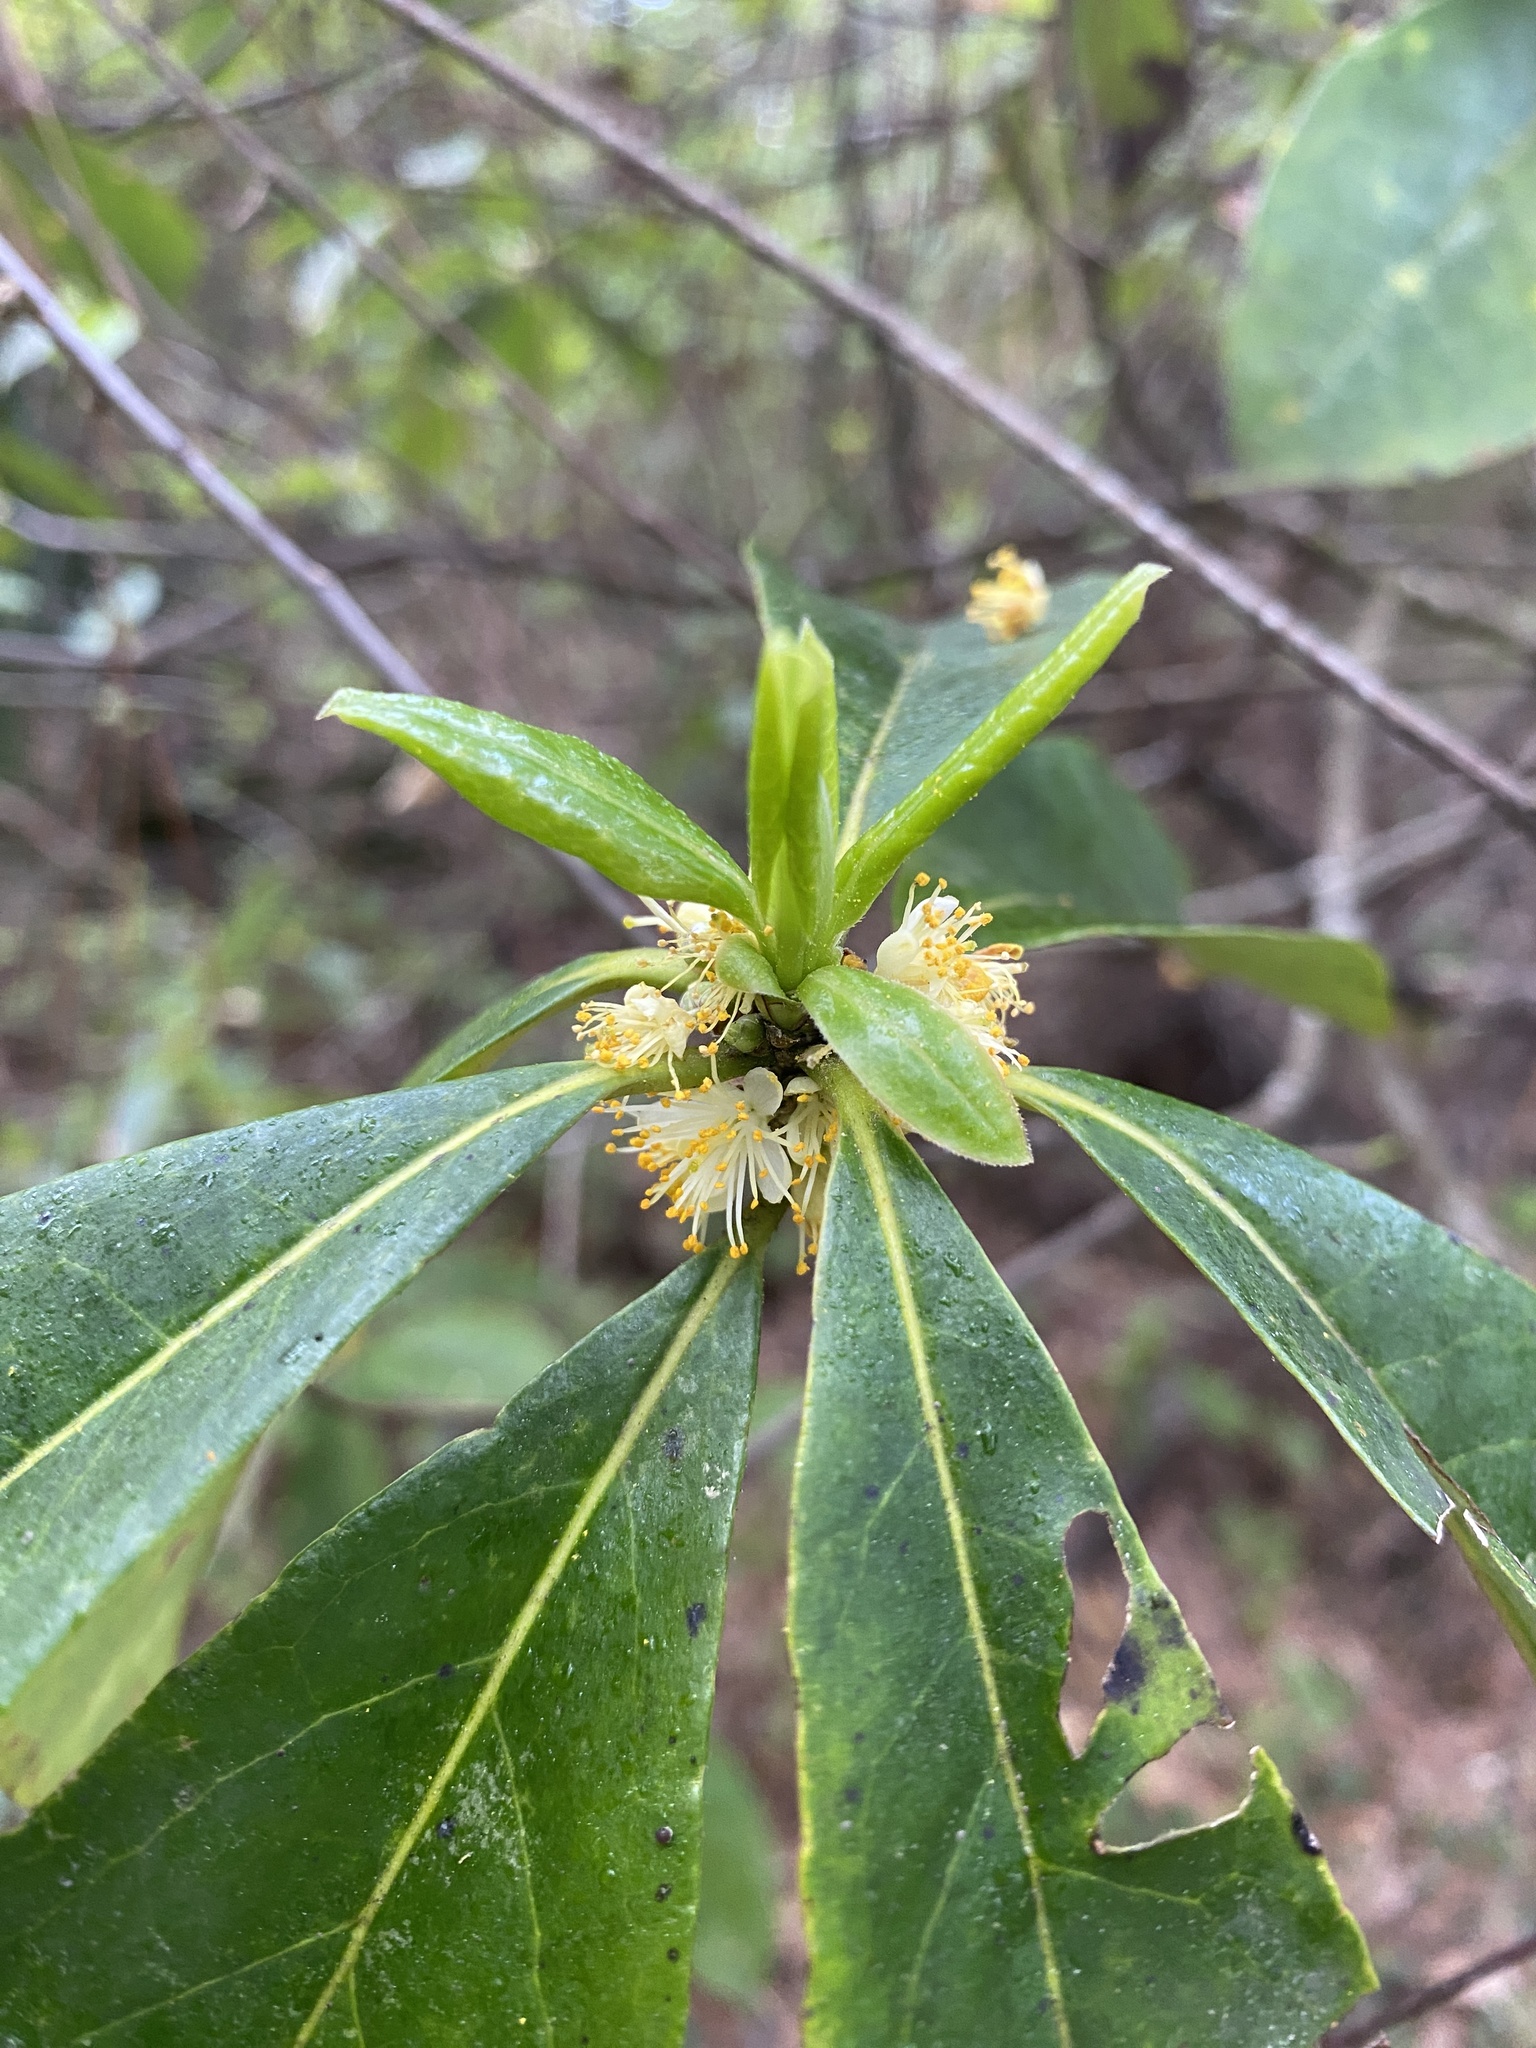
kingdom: Plantae
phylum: Tracheophyta
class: Magnoliopsida
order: Ericales
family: Symplocaceae
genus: Symplocos
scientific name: Symplocos tinctoria
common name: Horse-sugar
